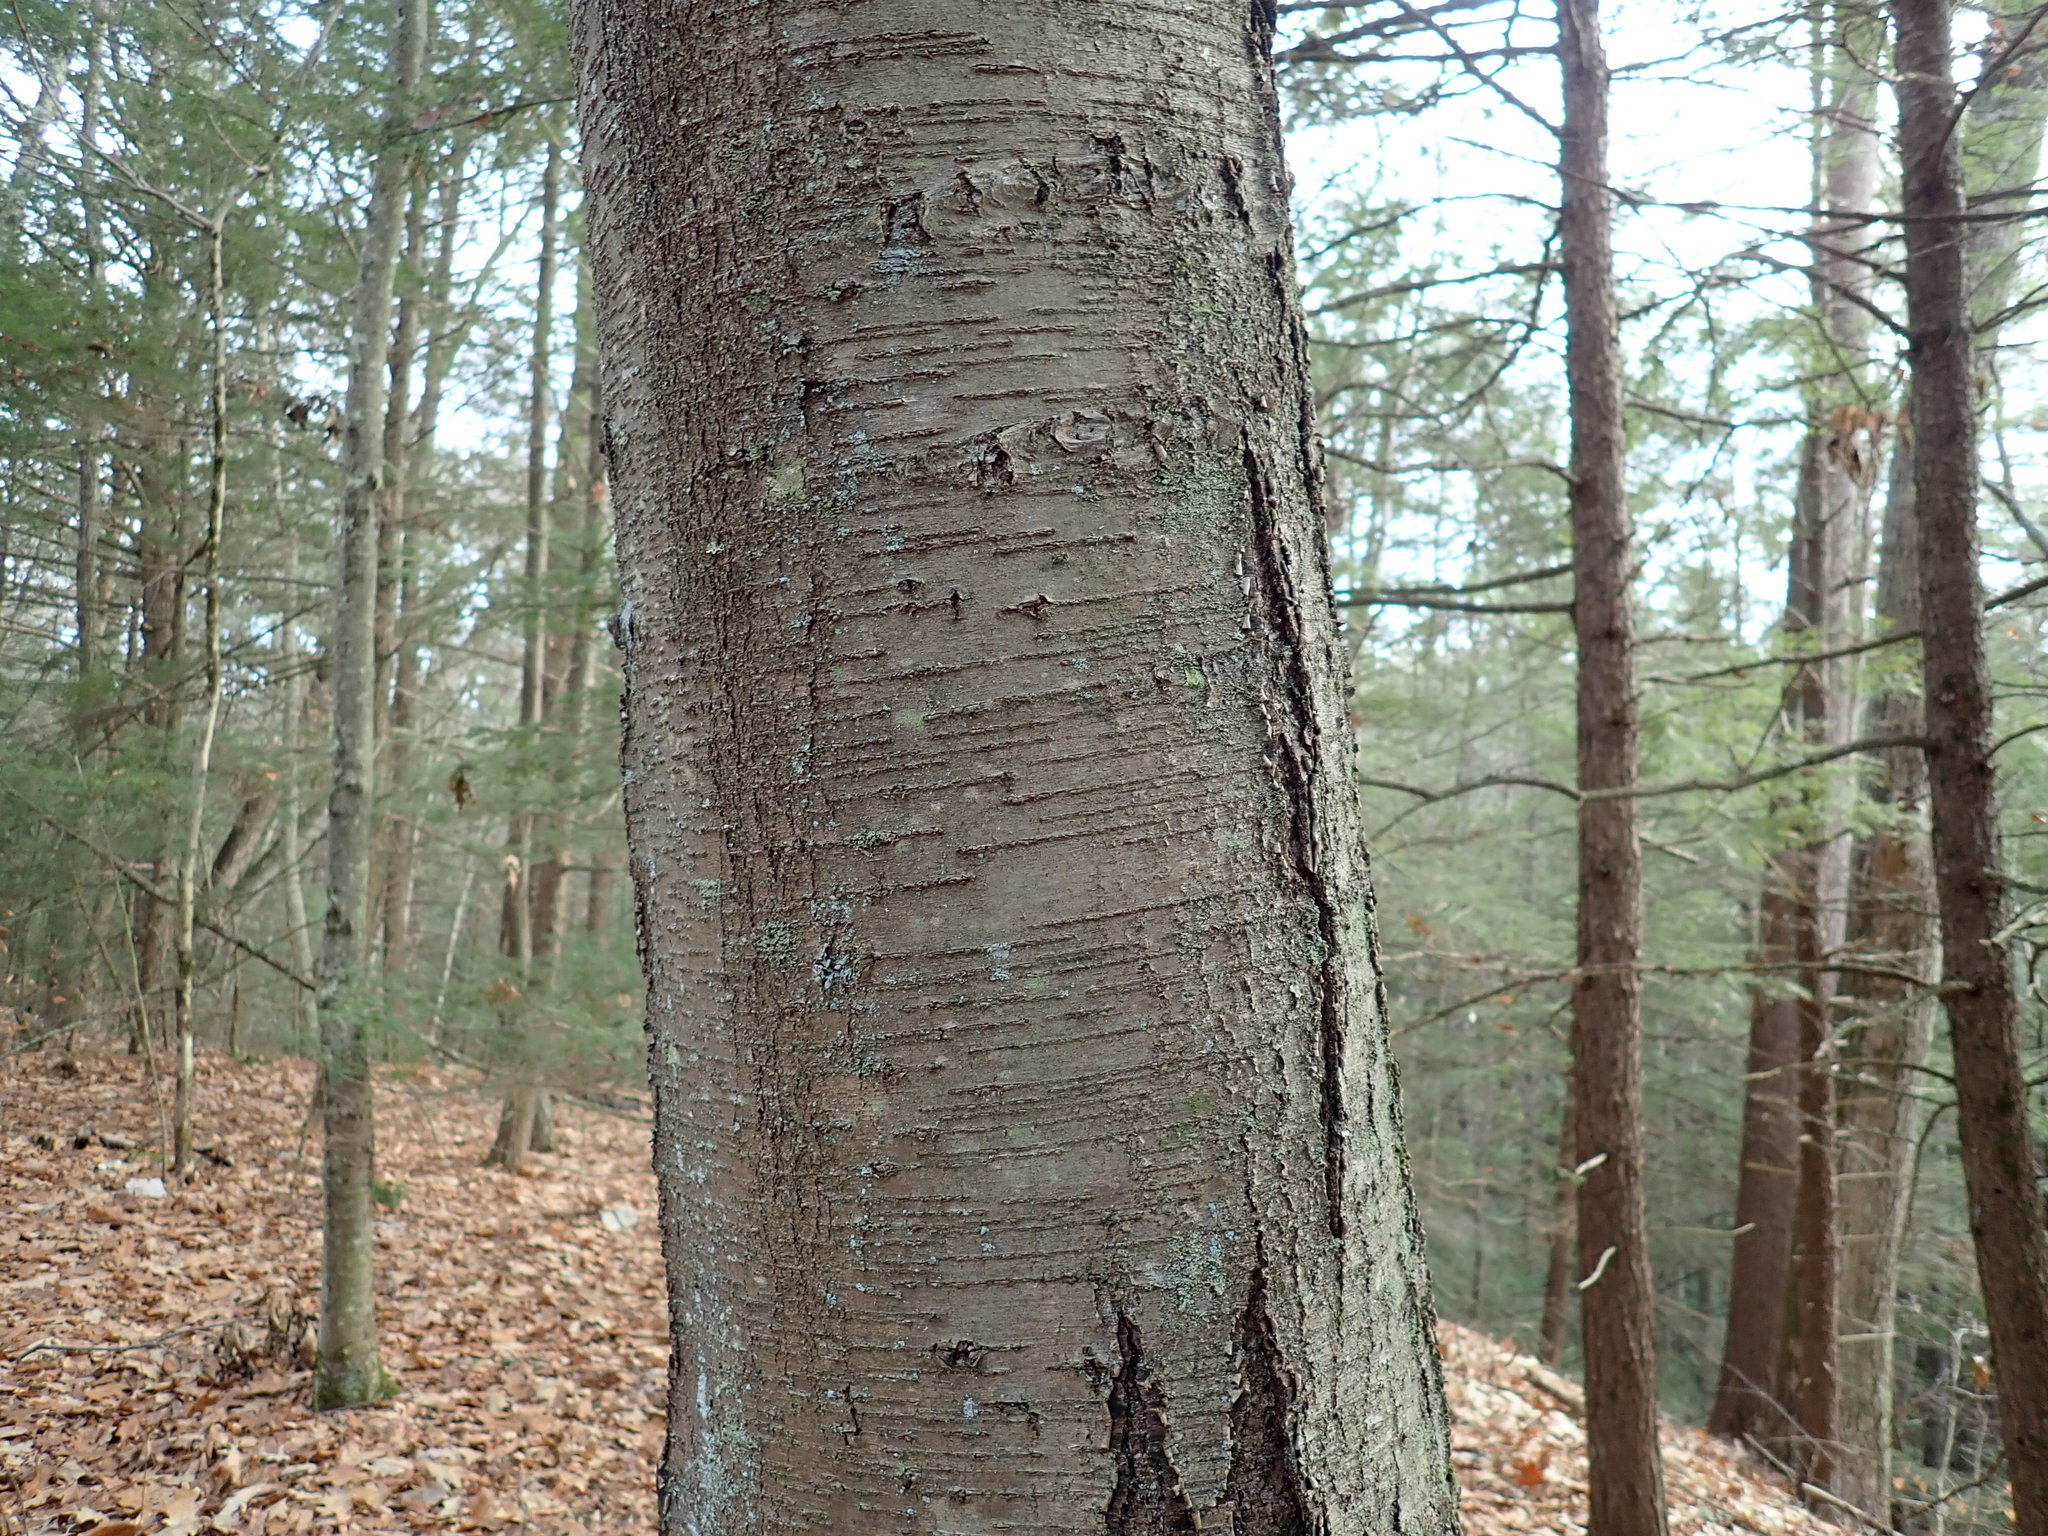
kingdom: Plantae
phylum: Tracheophyta
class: Magnoliopsida
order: Fagales
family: Betulaceae
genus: Betula
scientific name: Betula lenta
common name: Black birch
